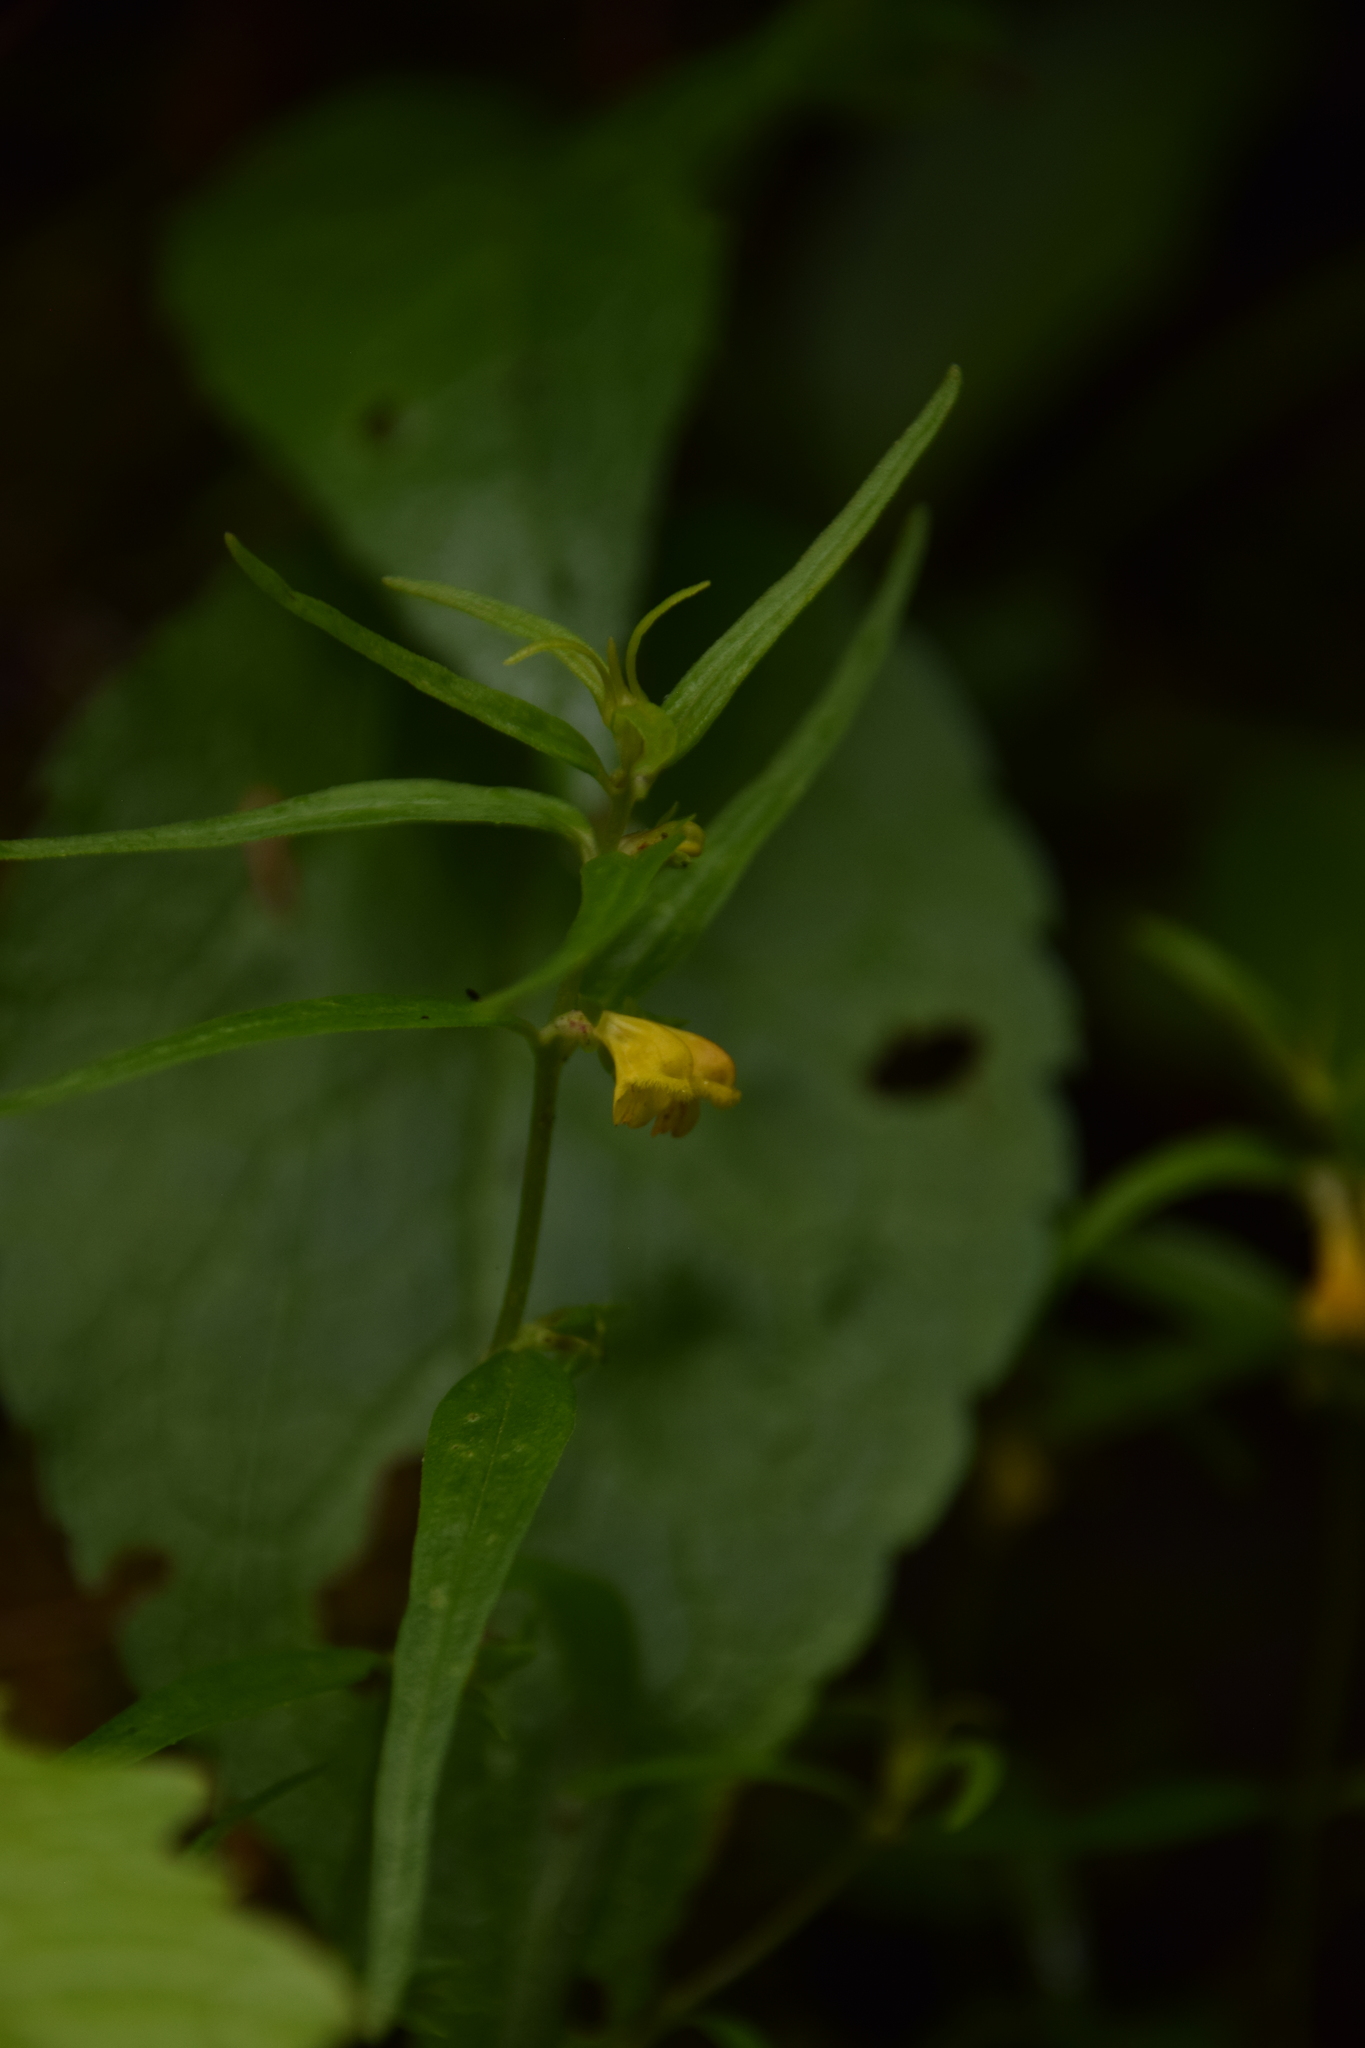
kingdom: Plantae
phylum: Tracheophyta
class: Magnoliopsida
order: Lamiales
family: Orobanchaceae
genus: Melampyrum
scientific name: Melampyrum sylvaticum
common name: Small cow-wheat
